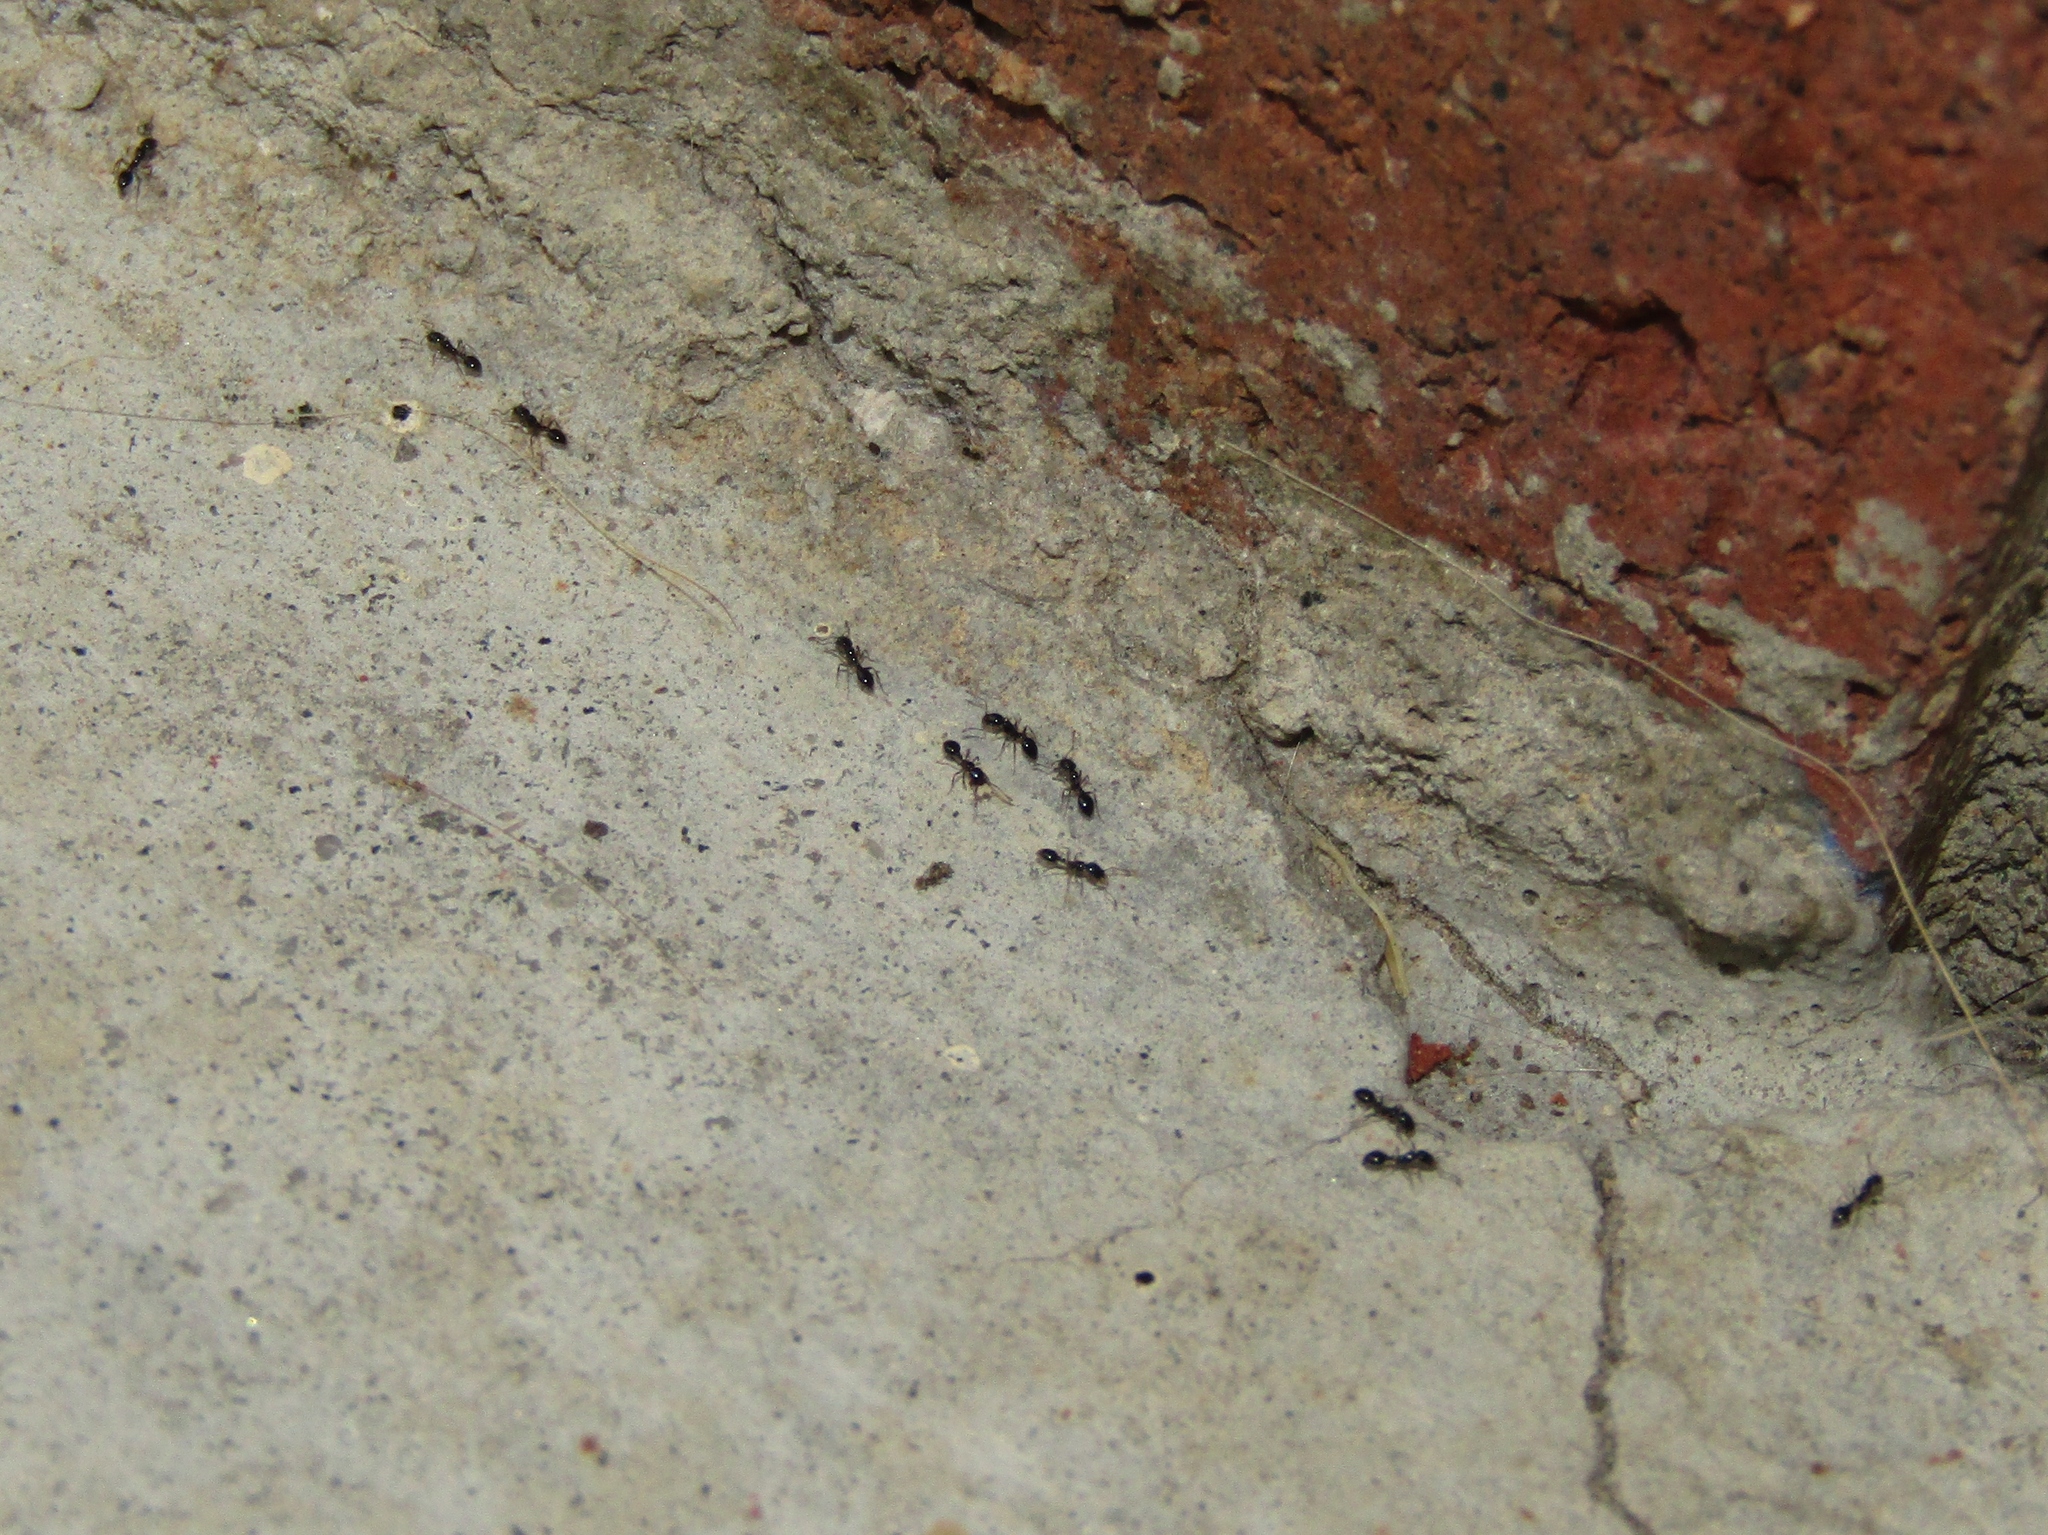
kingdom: Animalia
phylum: Arthropoda
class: Insecta
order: Hymenoptera
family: Formicidae
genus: Monomorium
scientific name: Monomorium minimum
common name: Little black ant
